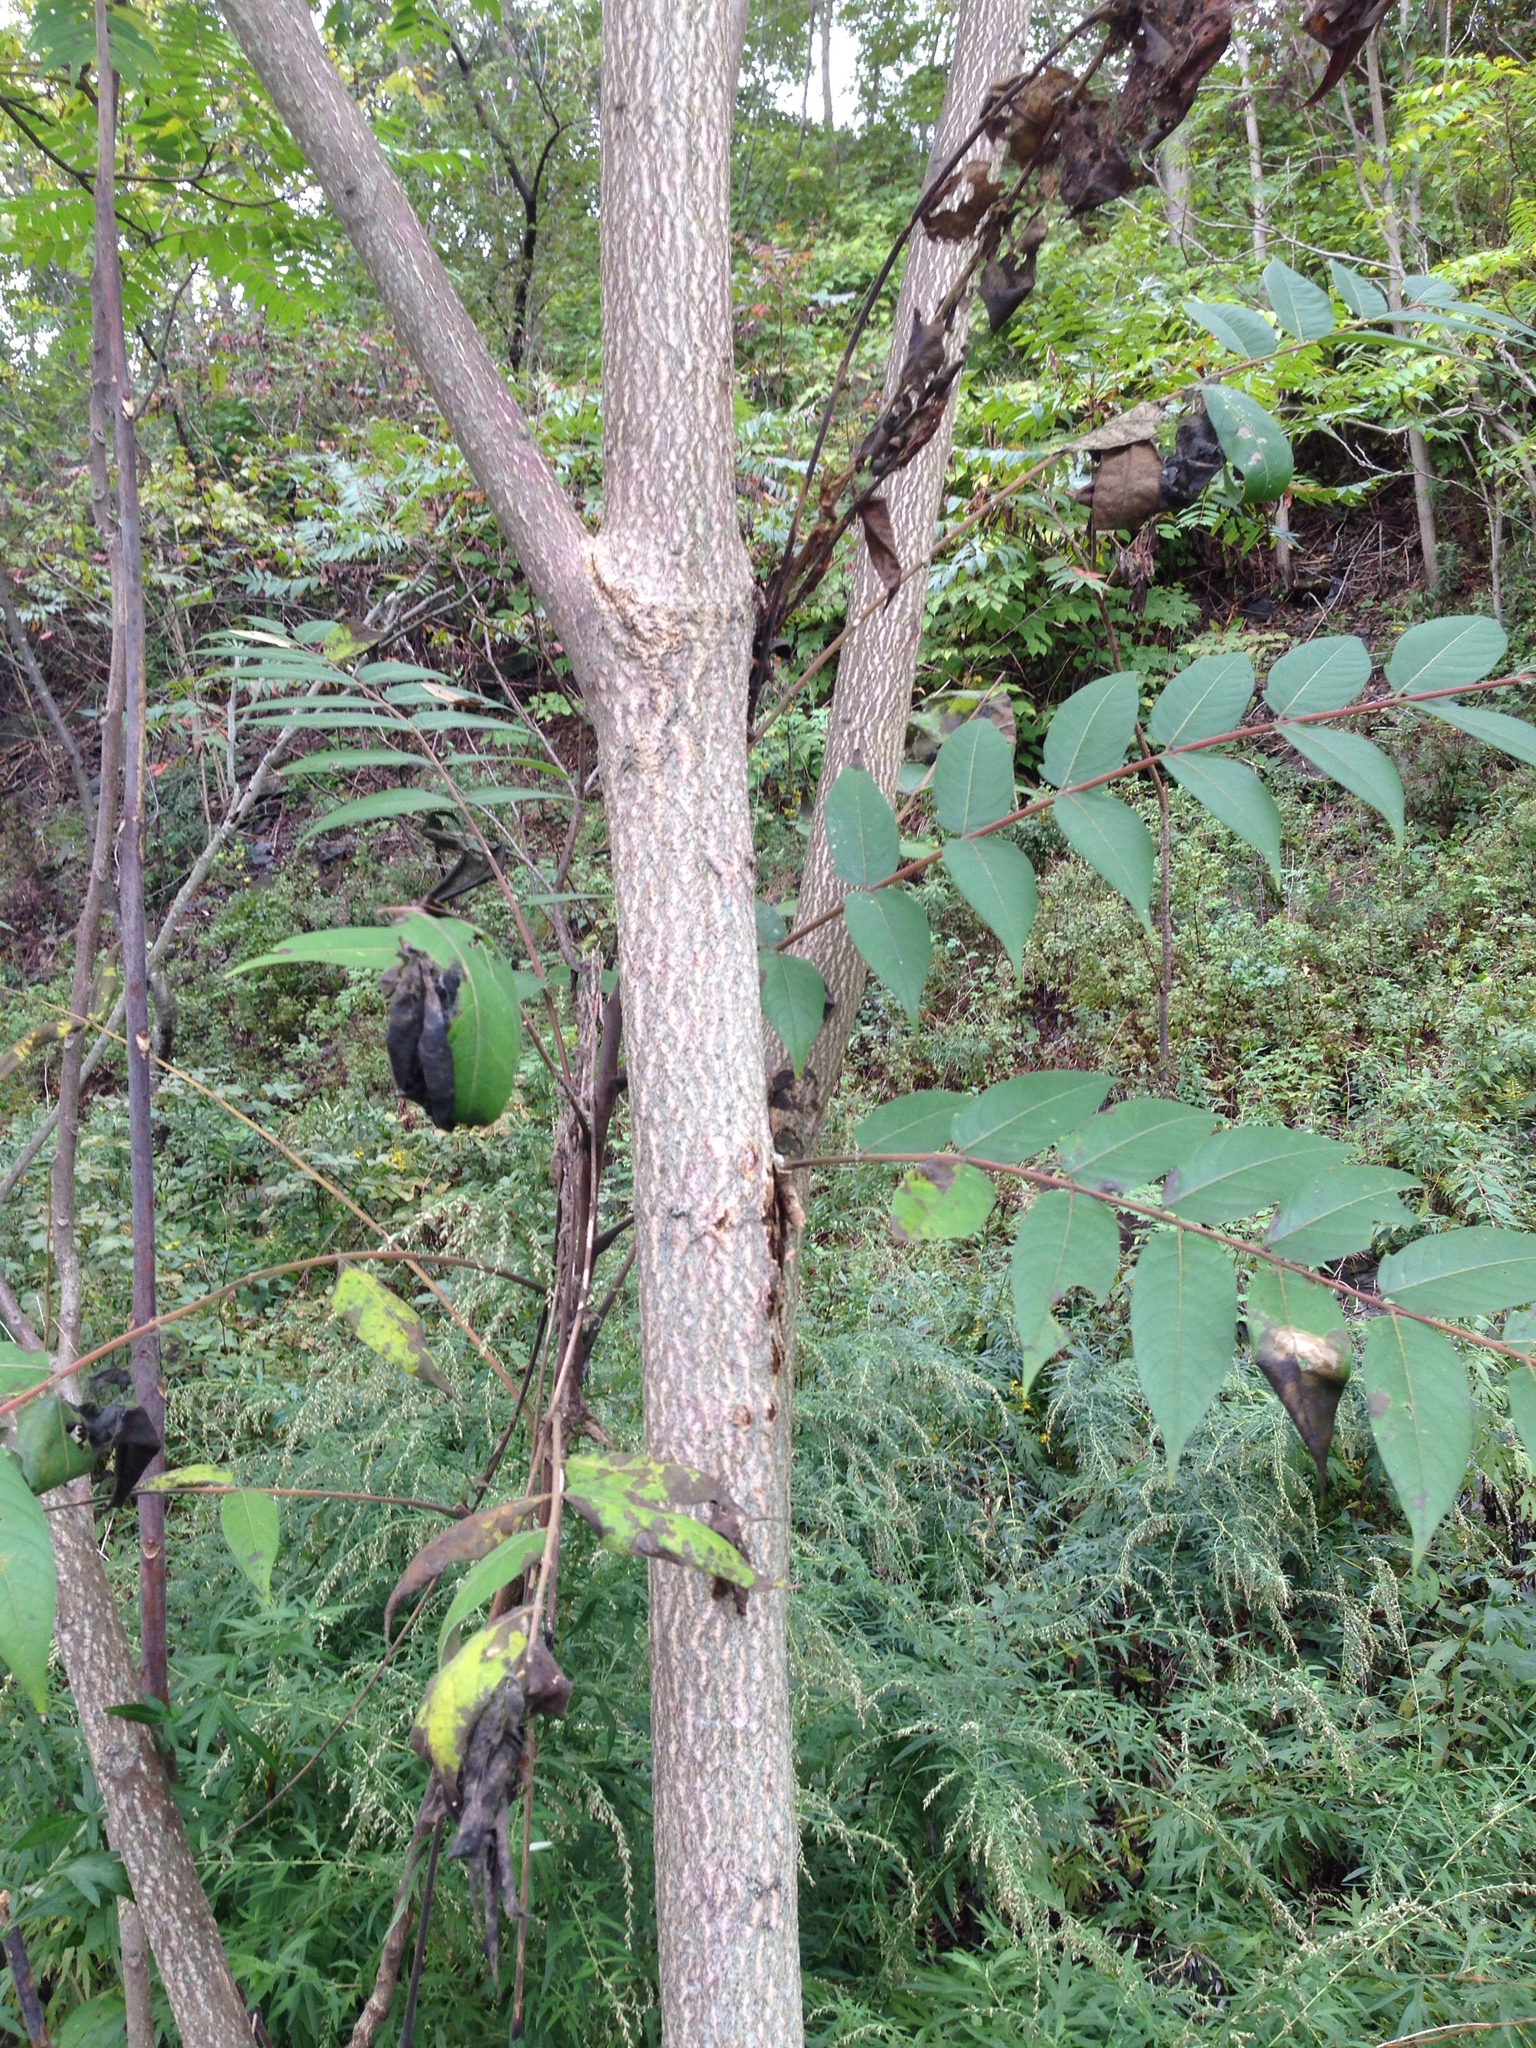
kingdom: Plantae
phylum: Tracheophyta
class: Magnoliopsida
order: Sapindales
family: Simaroubaceae
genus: Ailanthus
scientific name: Ailanthus altissima
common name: Tree-of-heaven
